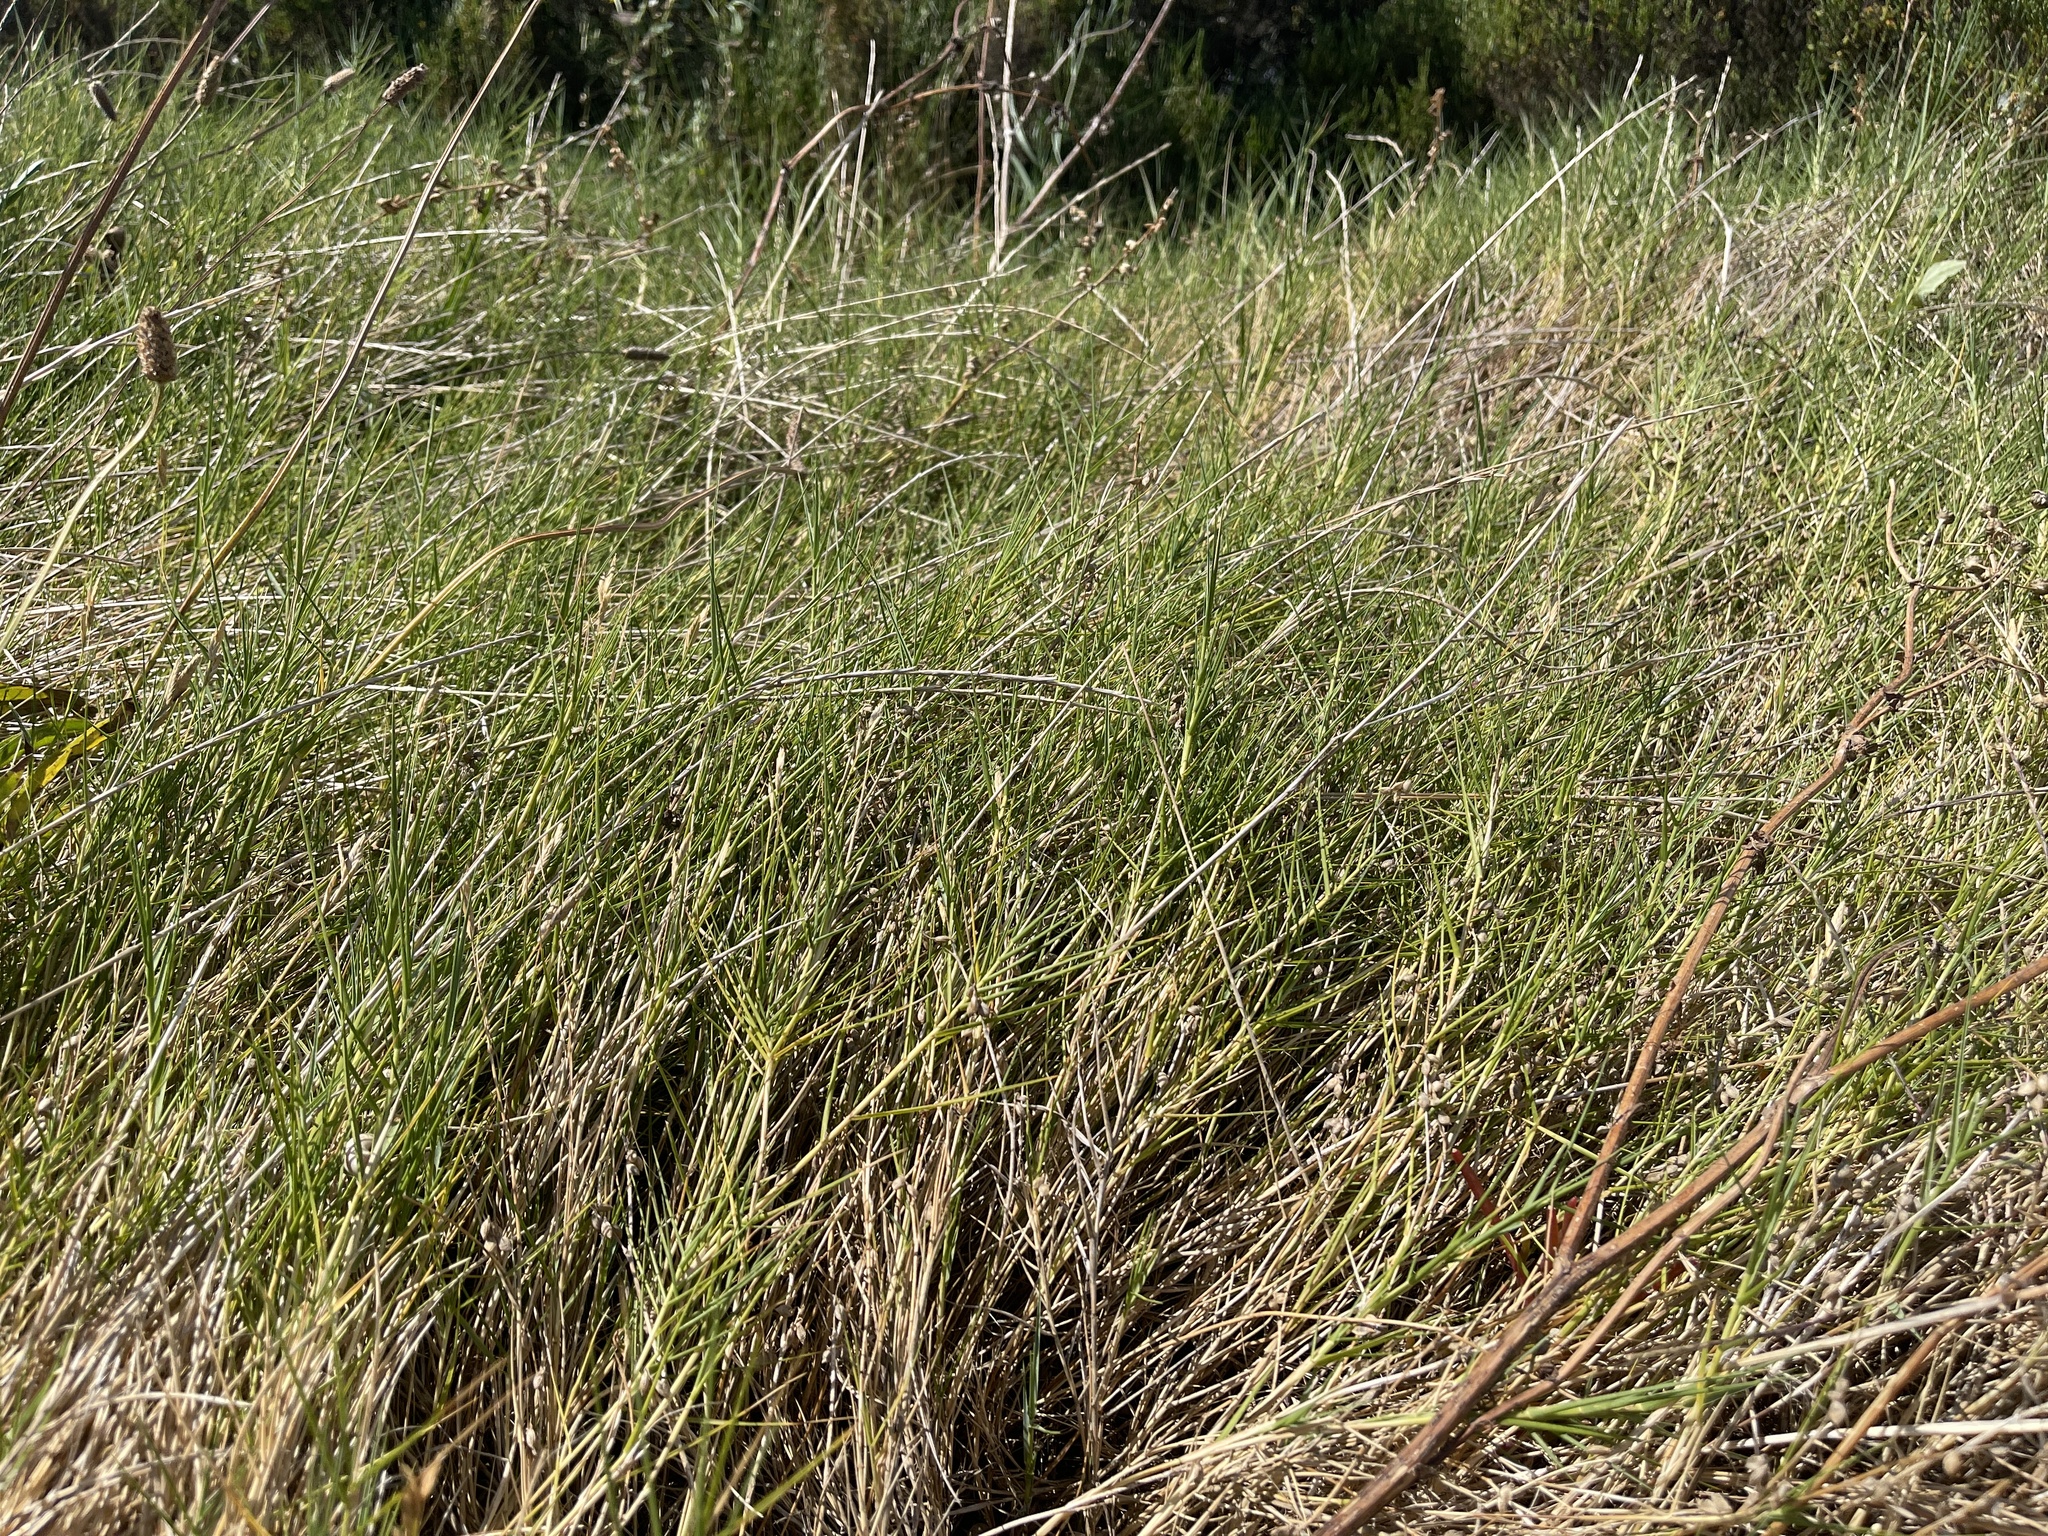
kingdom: Plantae
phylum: Tracheophyta
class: Liliopsida
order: Poales
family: Poaceae
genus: Distichlis
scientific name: Distichlis distichophylla
